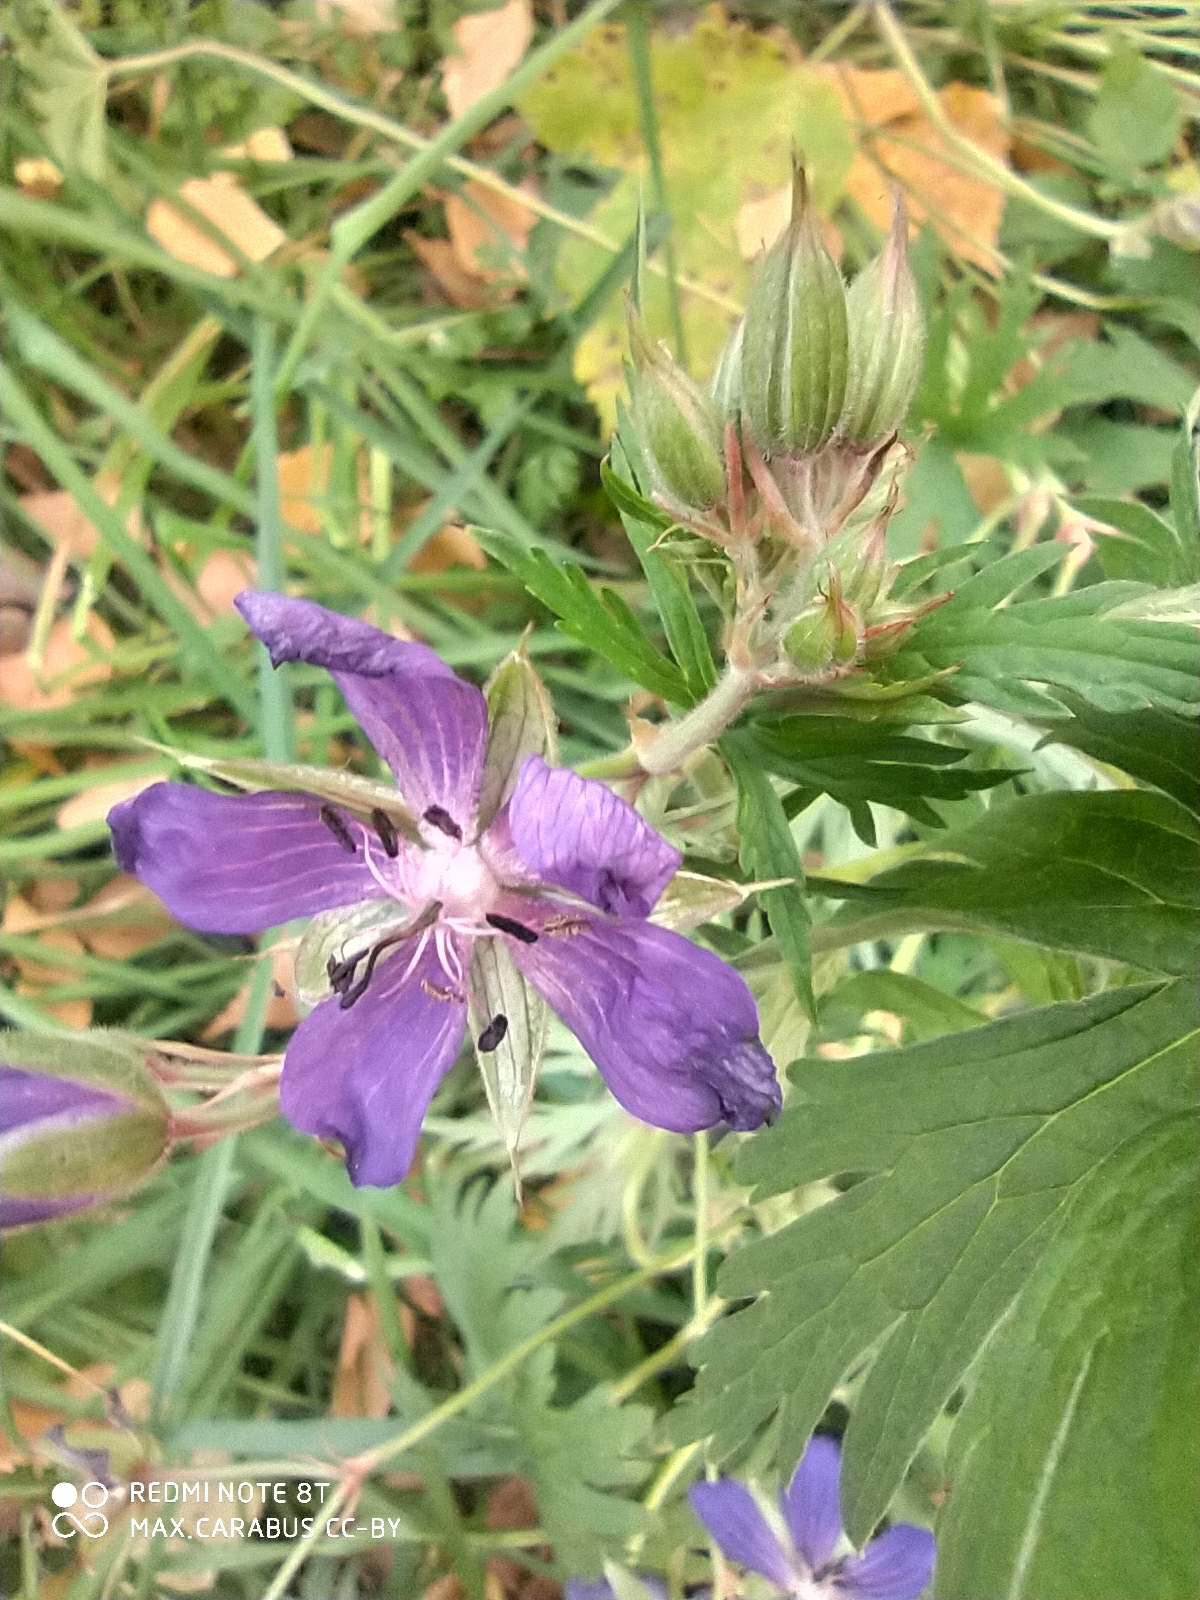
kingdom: Plantae
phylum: Tracheophyta
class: Magnoliopsida
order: Geraniales
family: Geraniaceae
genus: Geranium
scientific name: Geranium pratense
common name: Meadow crane's-bill
